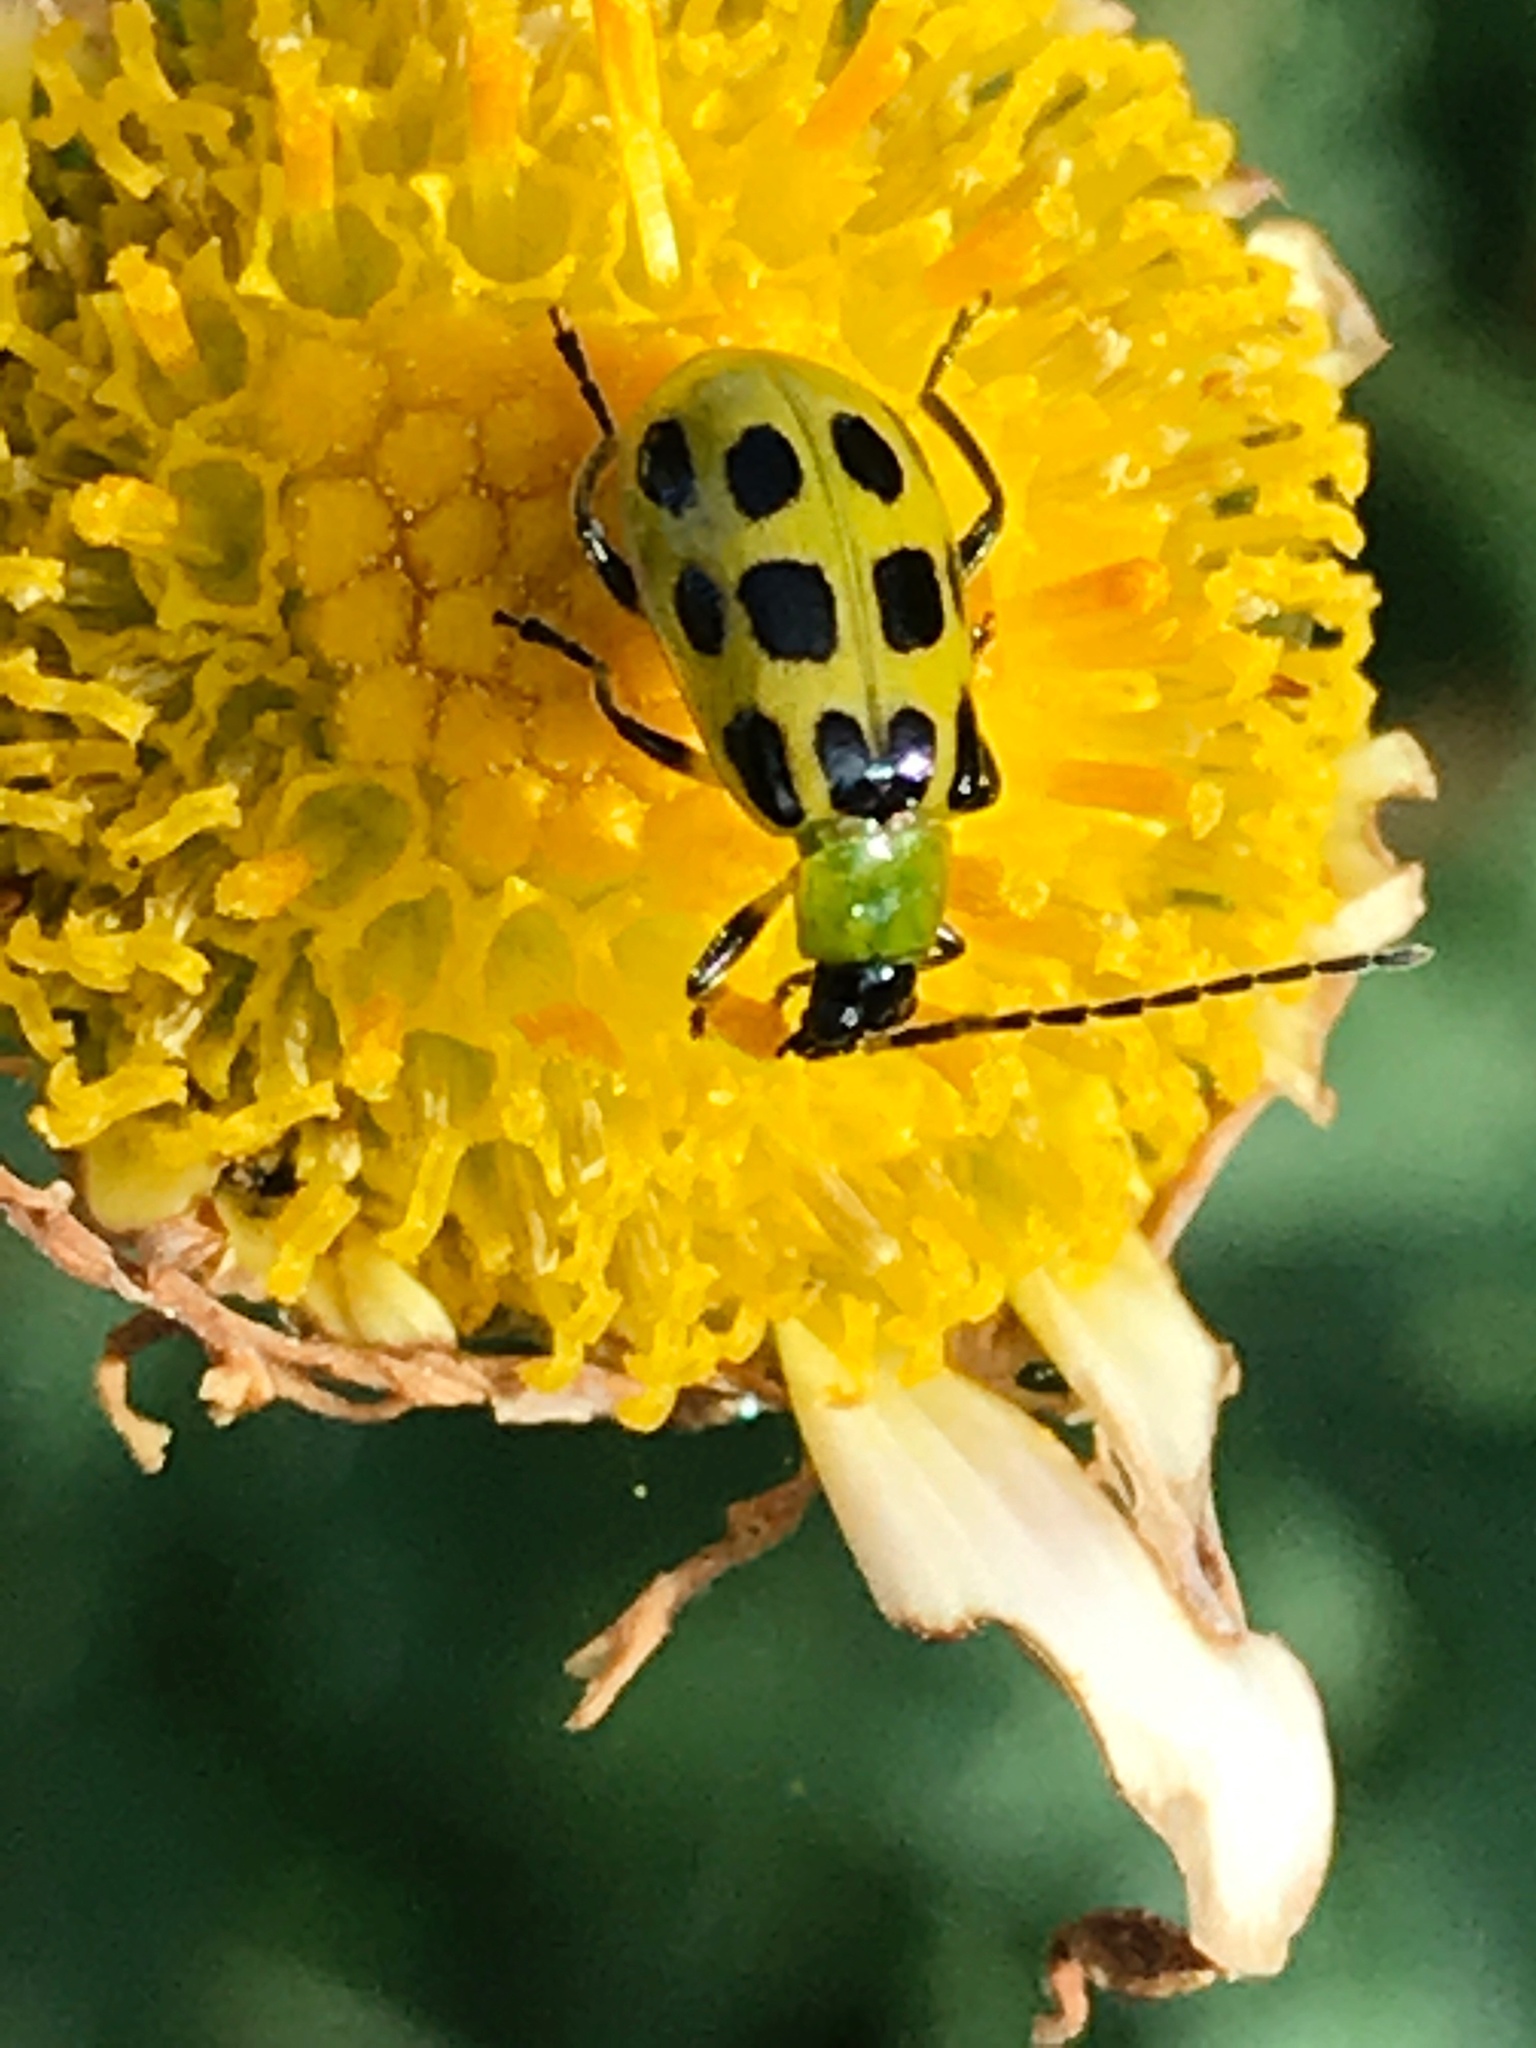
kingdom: Animalia
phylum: Arthropoda
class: Insecta
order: Coleoptera
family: Chrysomelidae
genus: Diabrotica
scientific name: Diabrotica undecimpunctata
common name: Spotted cucumber beetle
